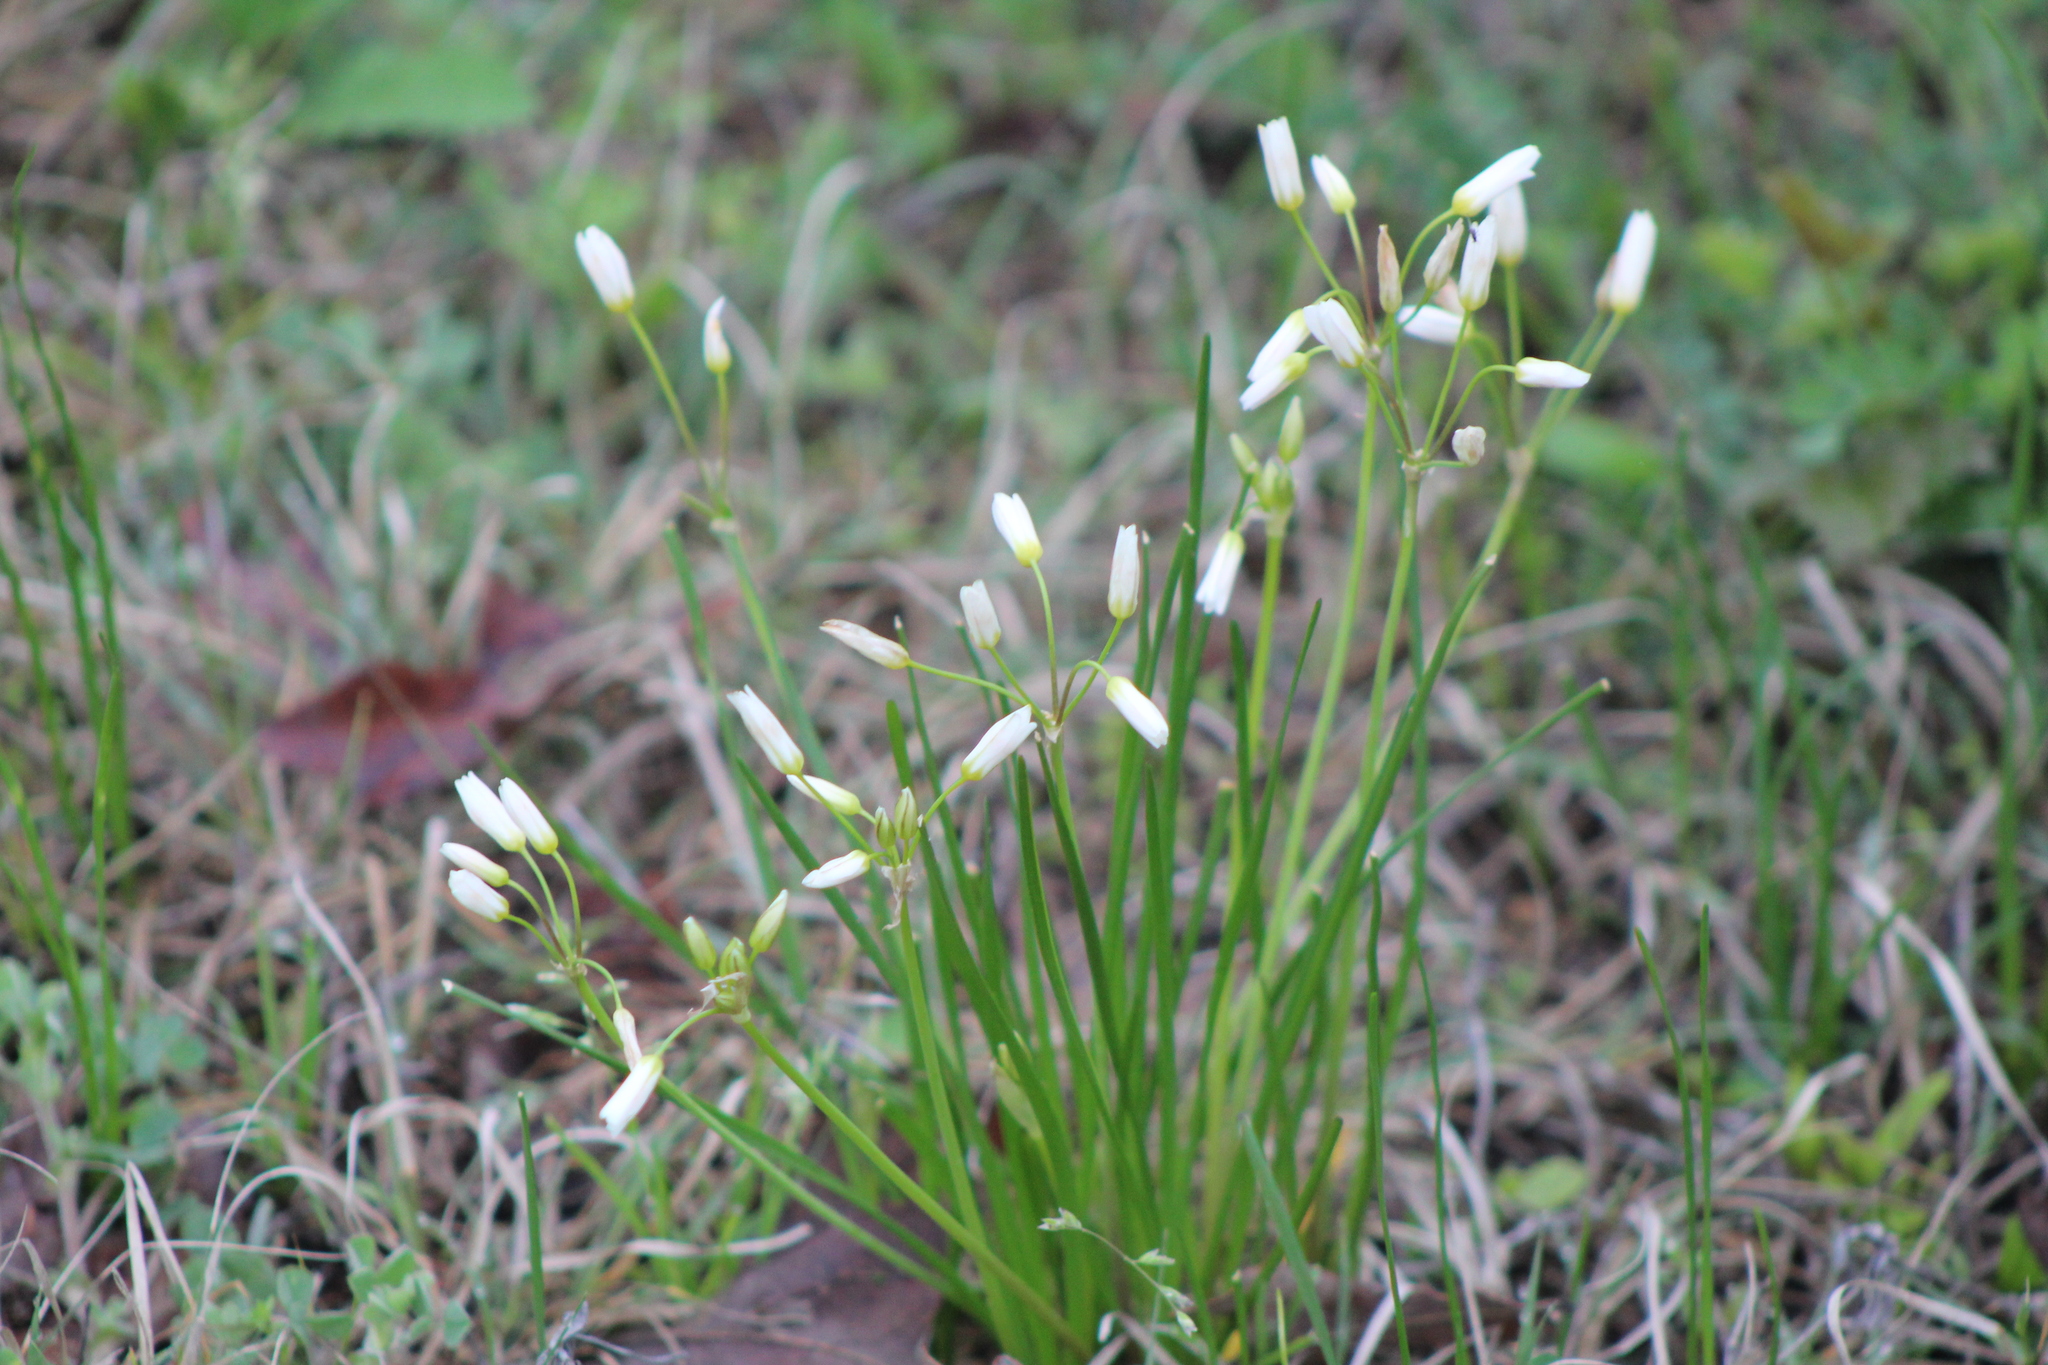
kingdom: Plantae
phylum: Tracheophyta
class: Liliopsida
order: Asparagales
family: Amaryllidaceae
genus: Nothoscordum
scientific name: Nothoscordum bivalve
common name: Crow-poison
